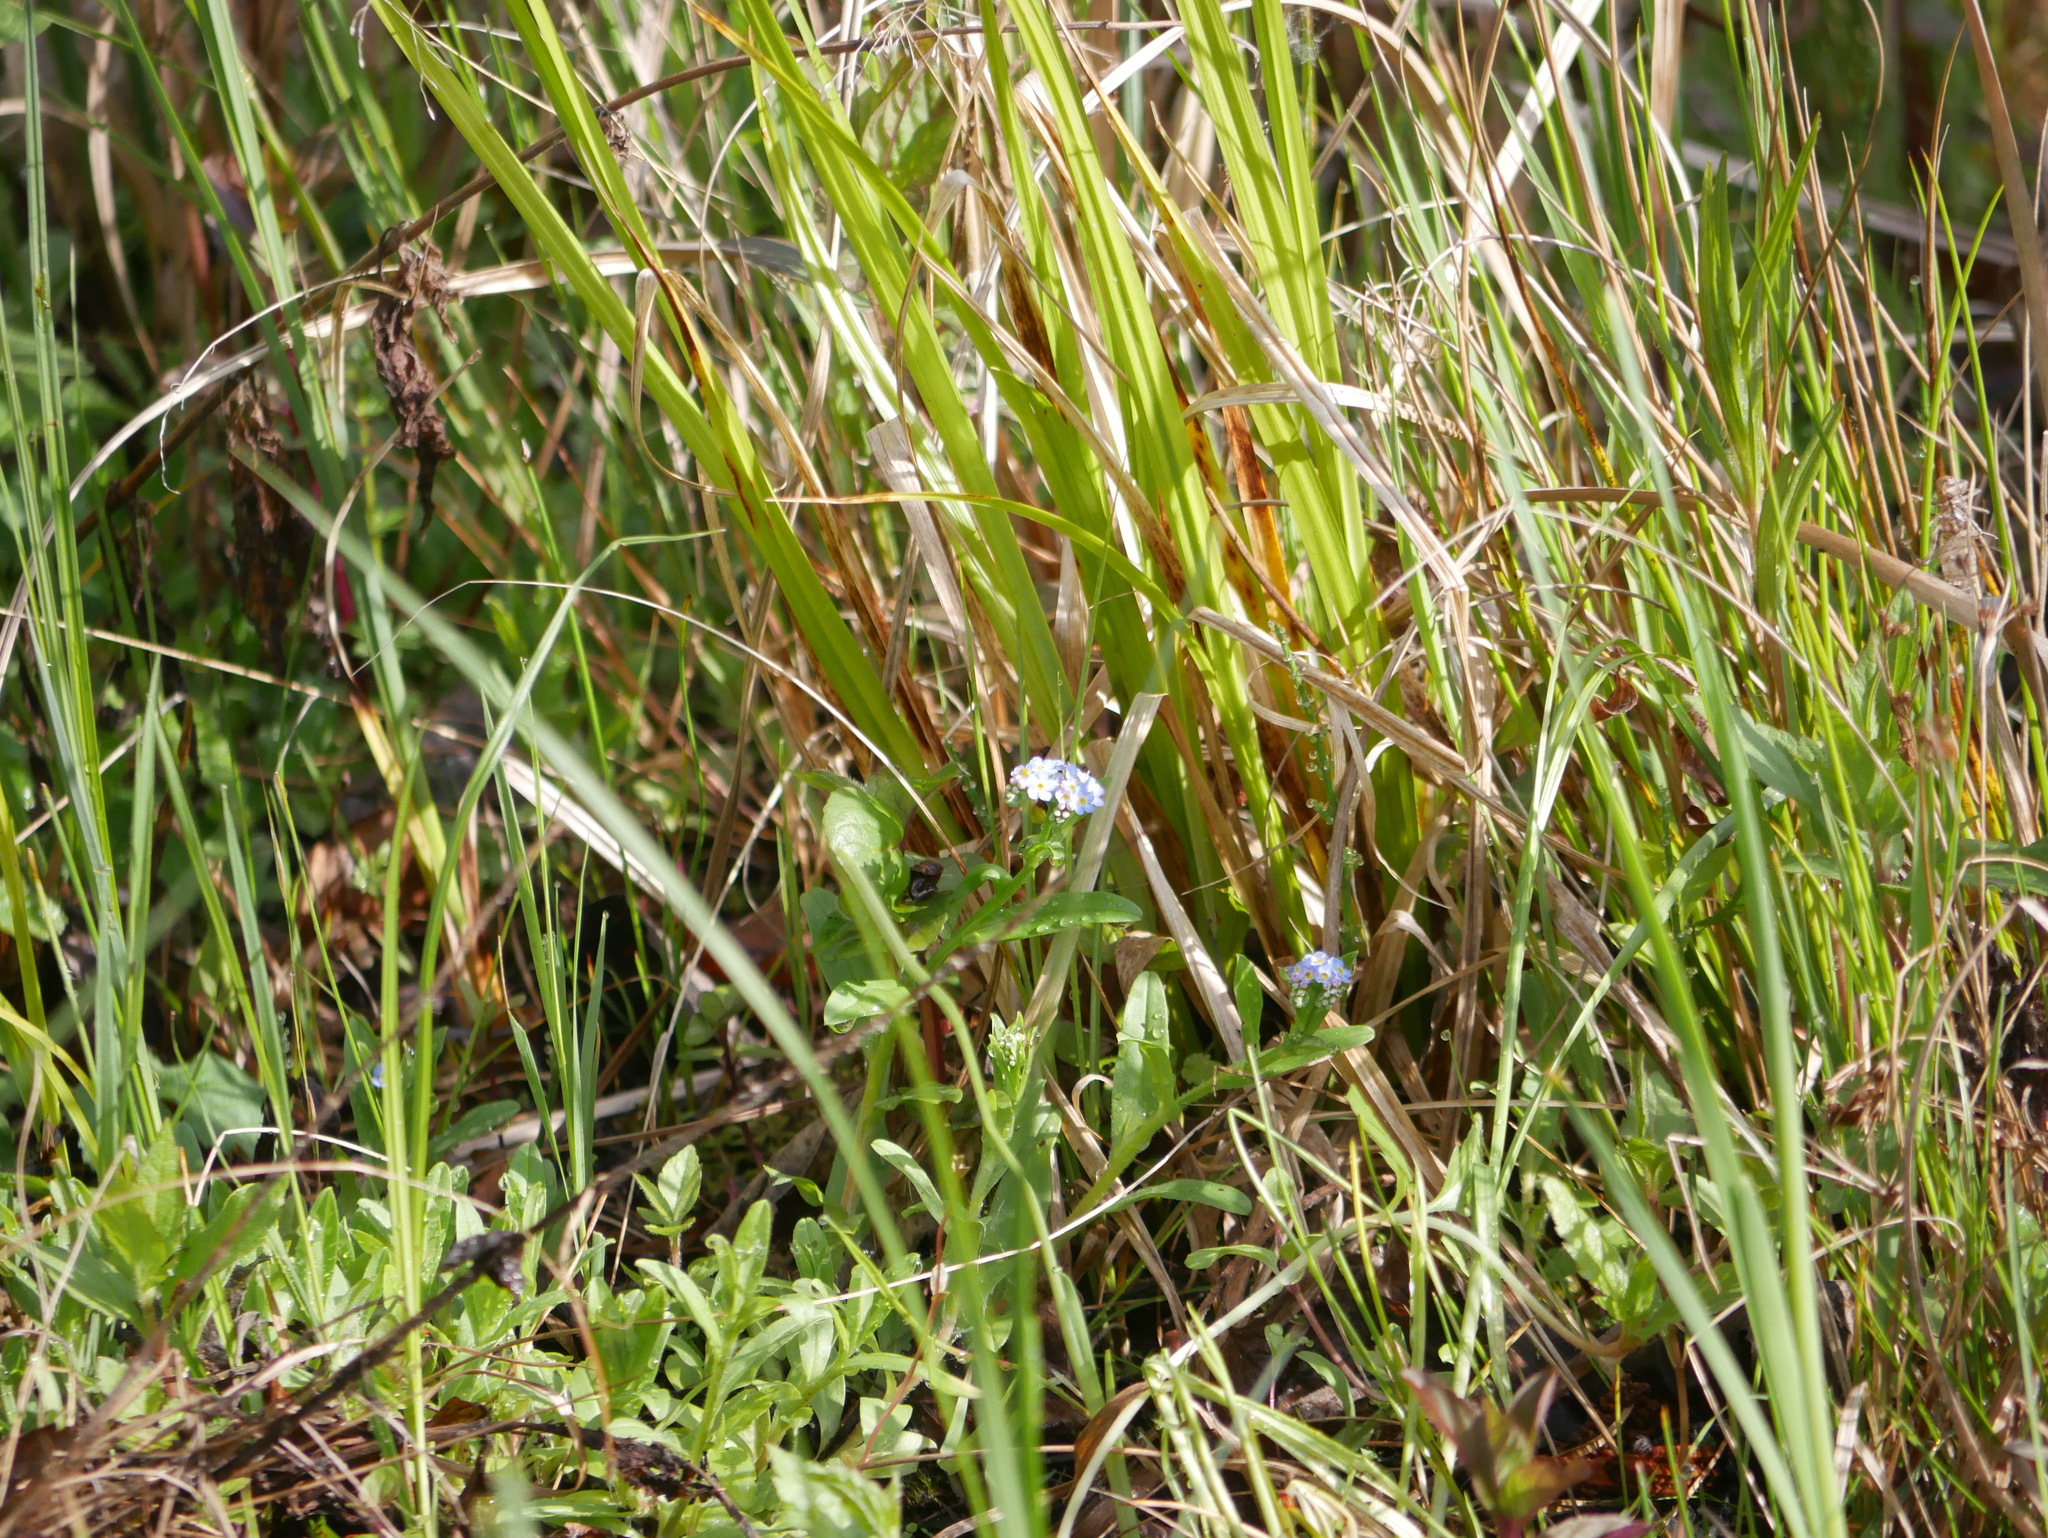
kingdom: Plantae
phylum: Tracheophyta
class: Magnoliopsida
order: Boraginales
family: Boraginaceae
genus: Myosotis
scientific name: Myosotis scorpioides
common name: Water forget-me-not
